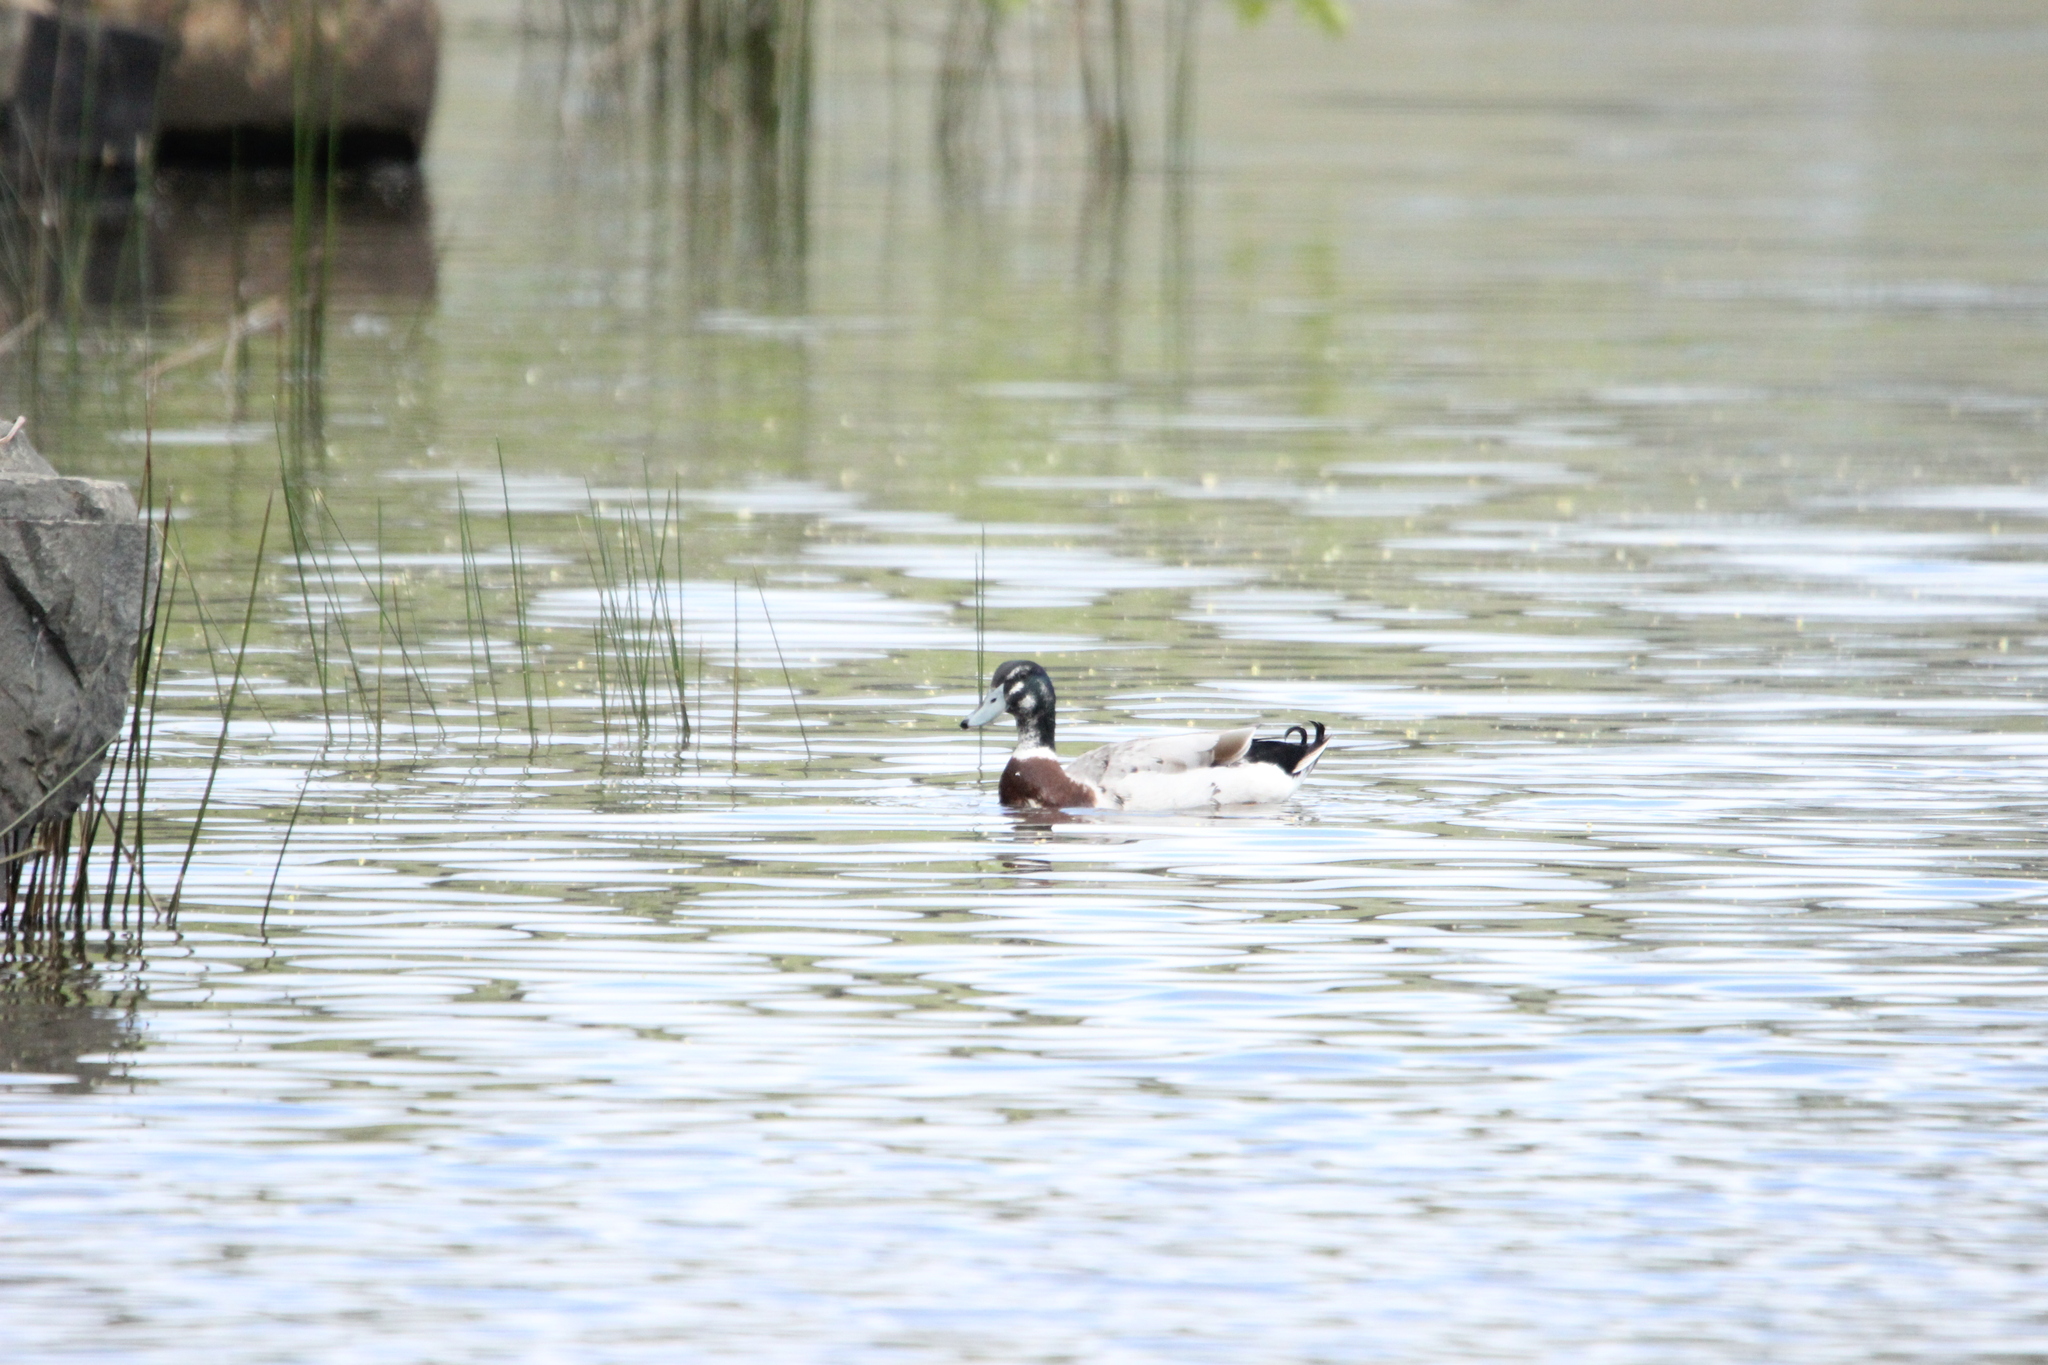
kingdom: Animalia
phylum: Chordata
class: Aves
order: Anseriformes
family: Anatidae
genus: Anas
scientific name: Anas platyrhynchos
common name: Mallard
